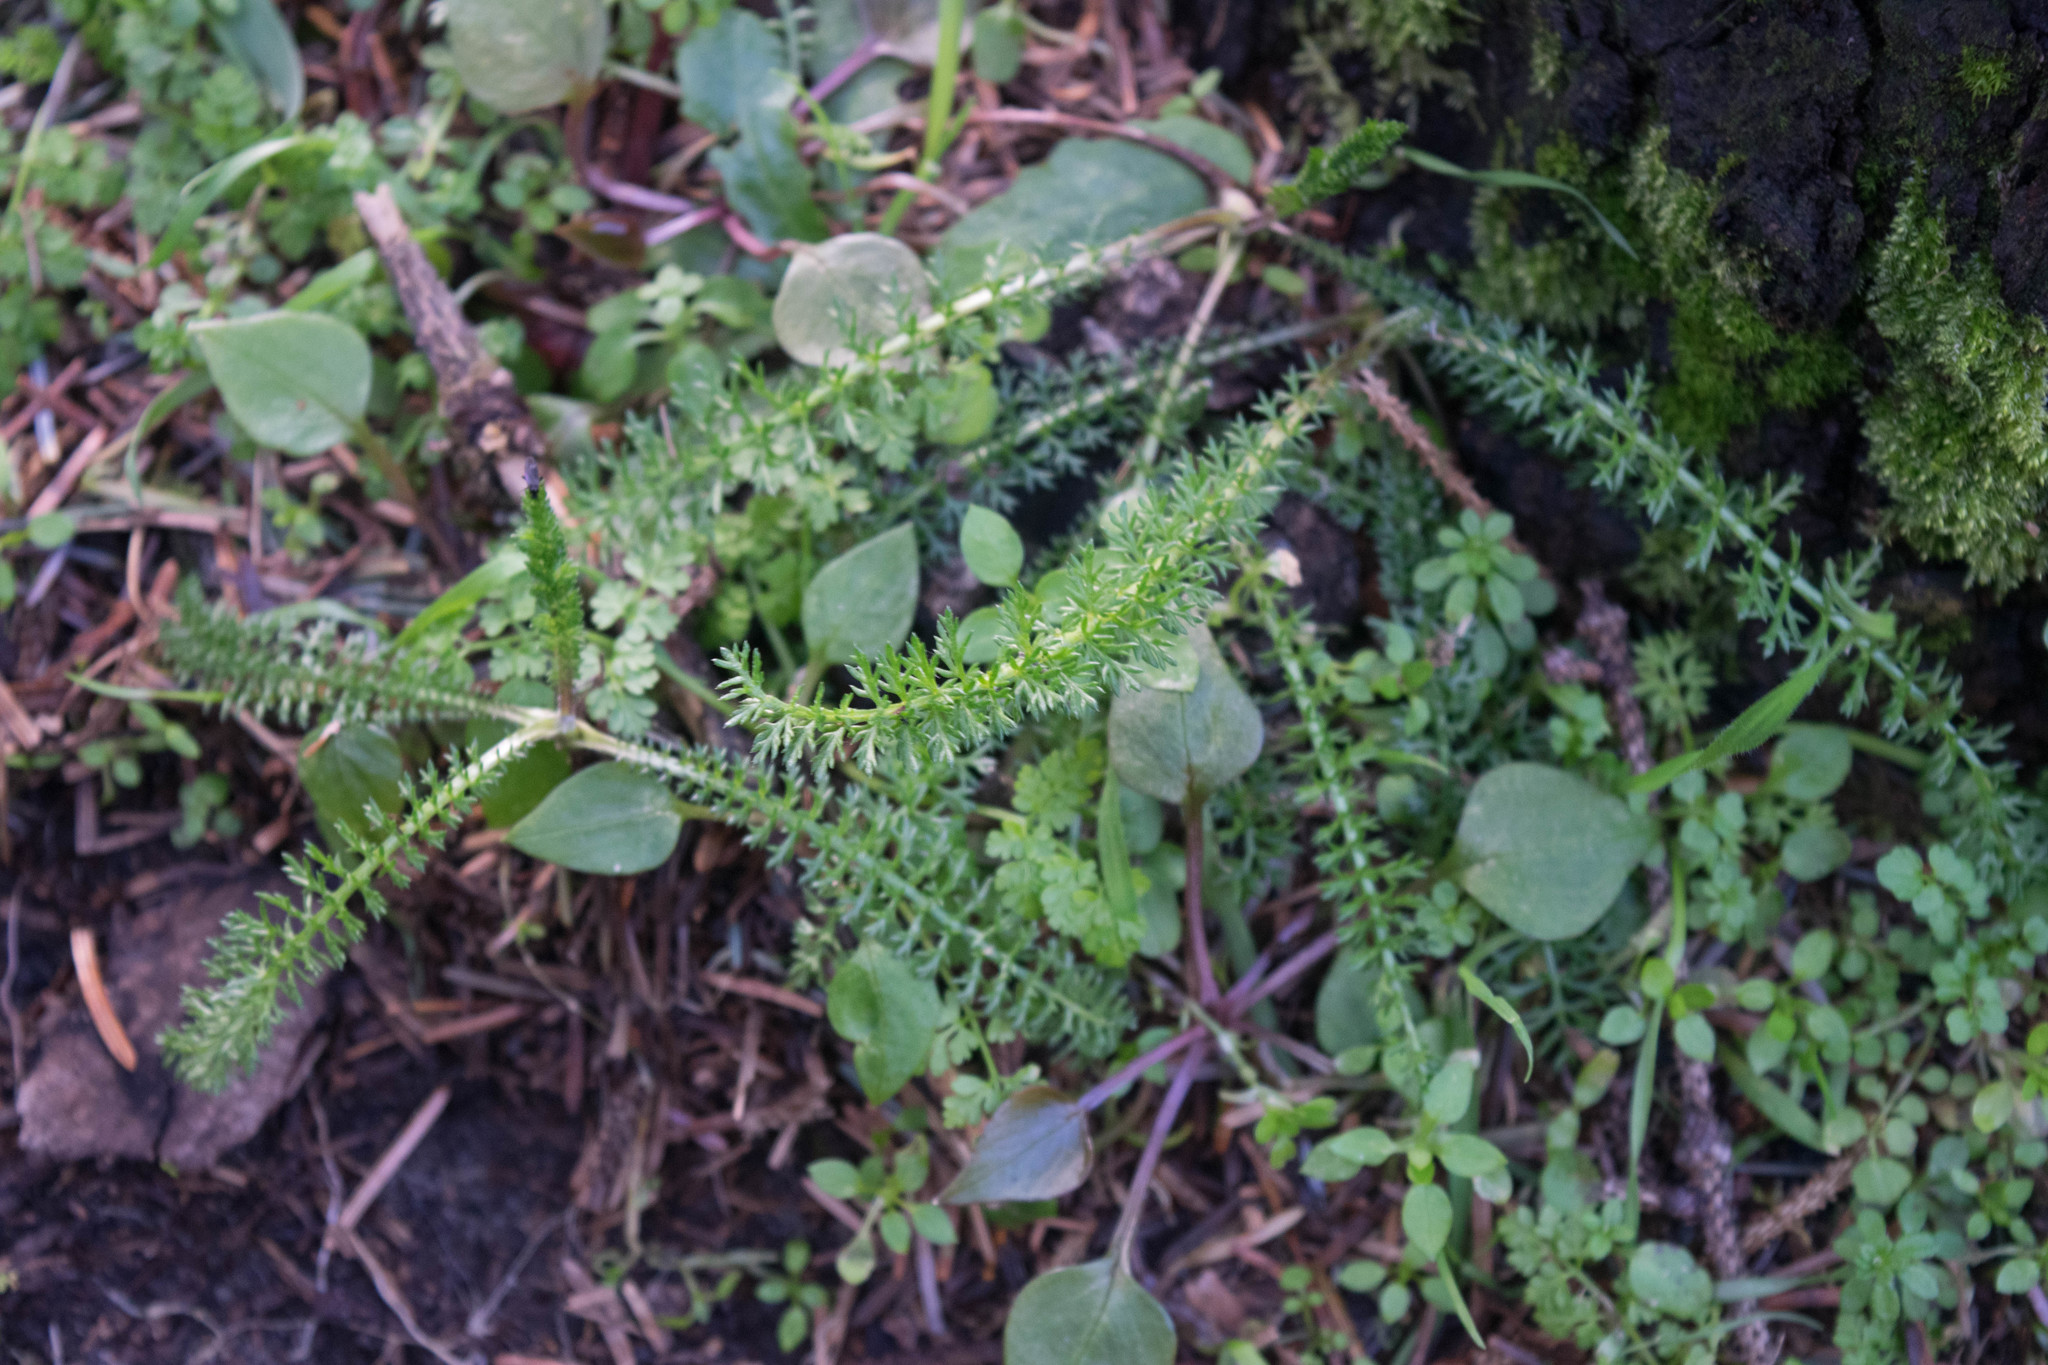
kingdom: Plantae
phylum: Tracheophyta
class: Magnoliopsida
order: Asterales
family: Asteraceae
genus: Achillea
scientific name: Achillea millefolium
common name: Yarrow
